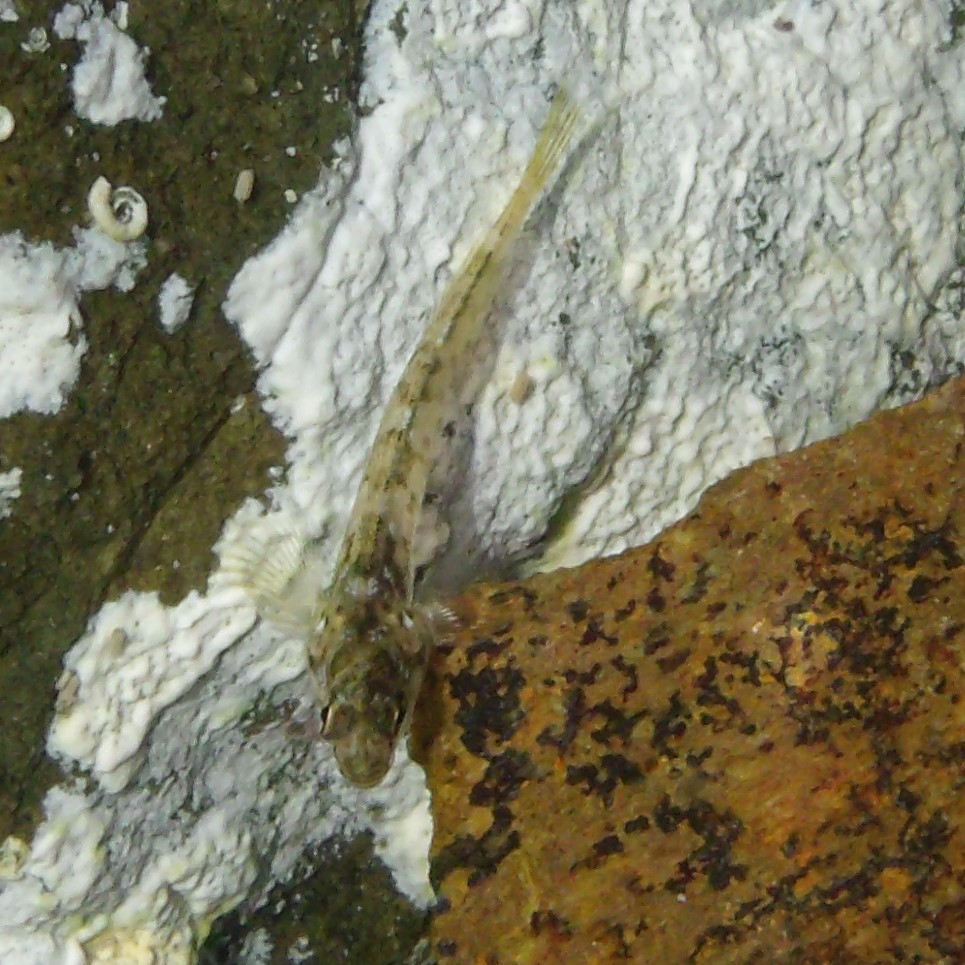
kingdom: Animalia
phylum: Chordata
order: Perciformes
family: Tripterygiidae
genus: Bellapiscis
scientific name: Bellapiscis medius
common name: Twister
